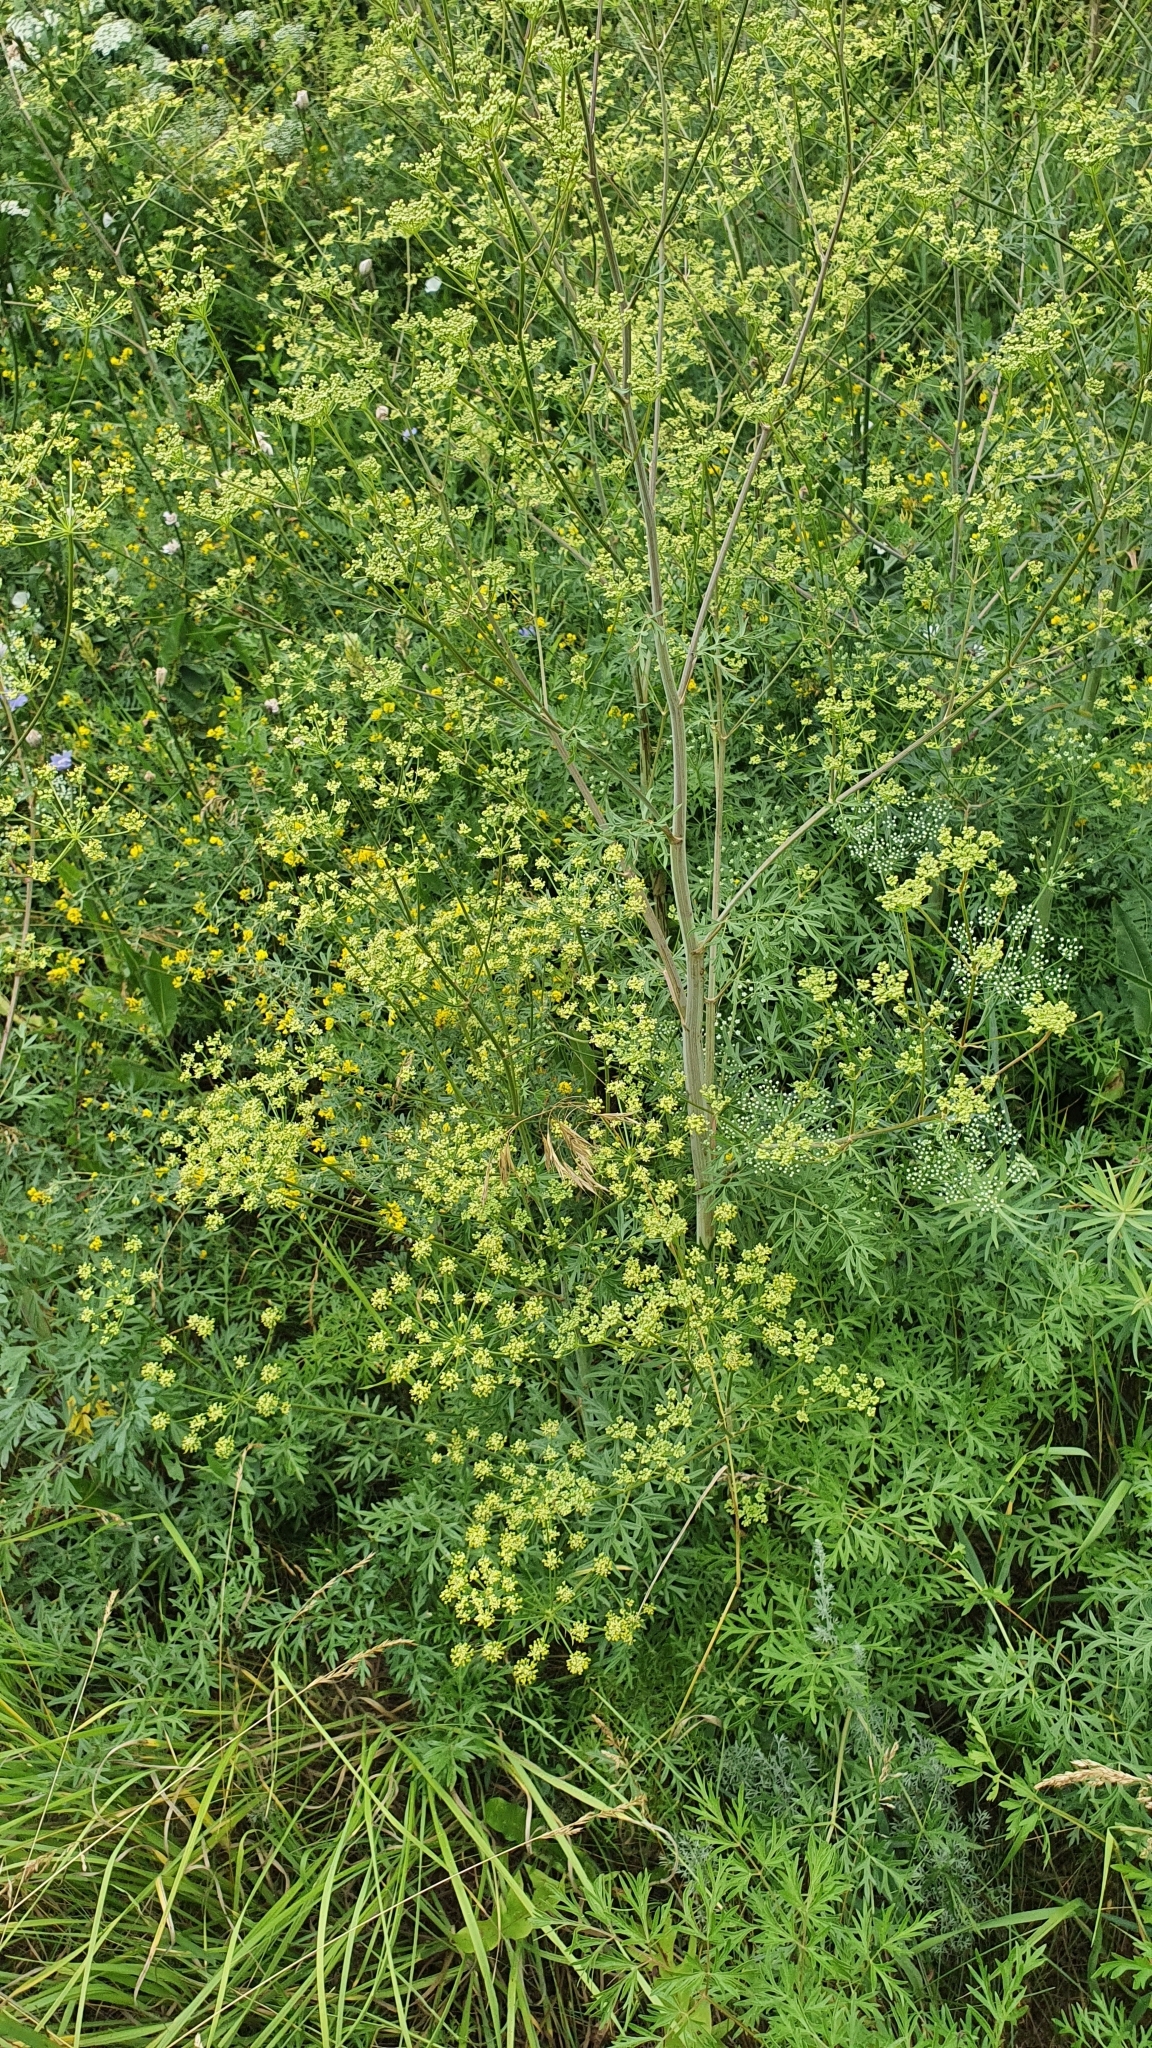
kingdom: Plantae
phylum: Tracheophyta
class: Magnoliopsida
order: Apiales
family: Apiaceae
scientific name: Apiaceae
